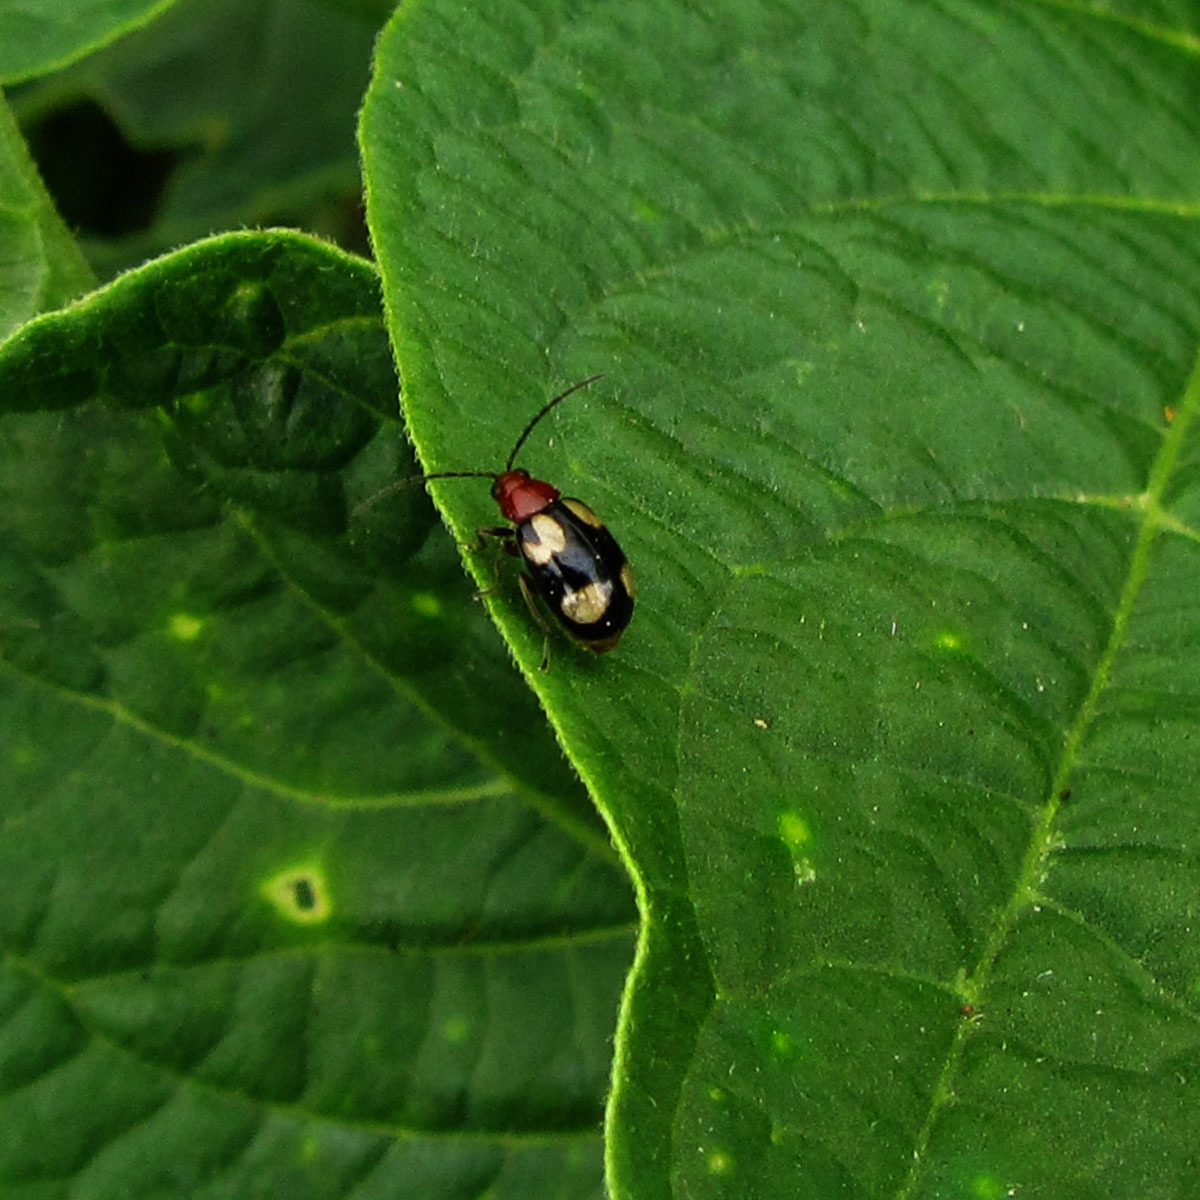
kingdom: Animalia
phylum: Arthropoda
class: Insecta
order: Coleoptera
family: Chrysomelidae
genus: Monolepta
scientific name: Monolepta signata
